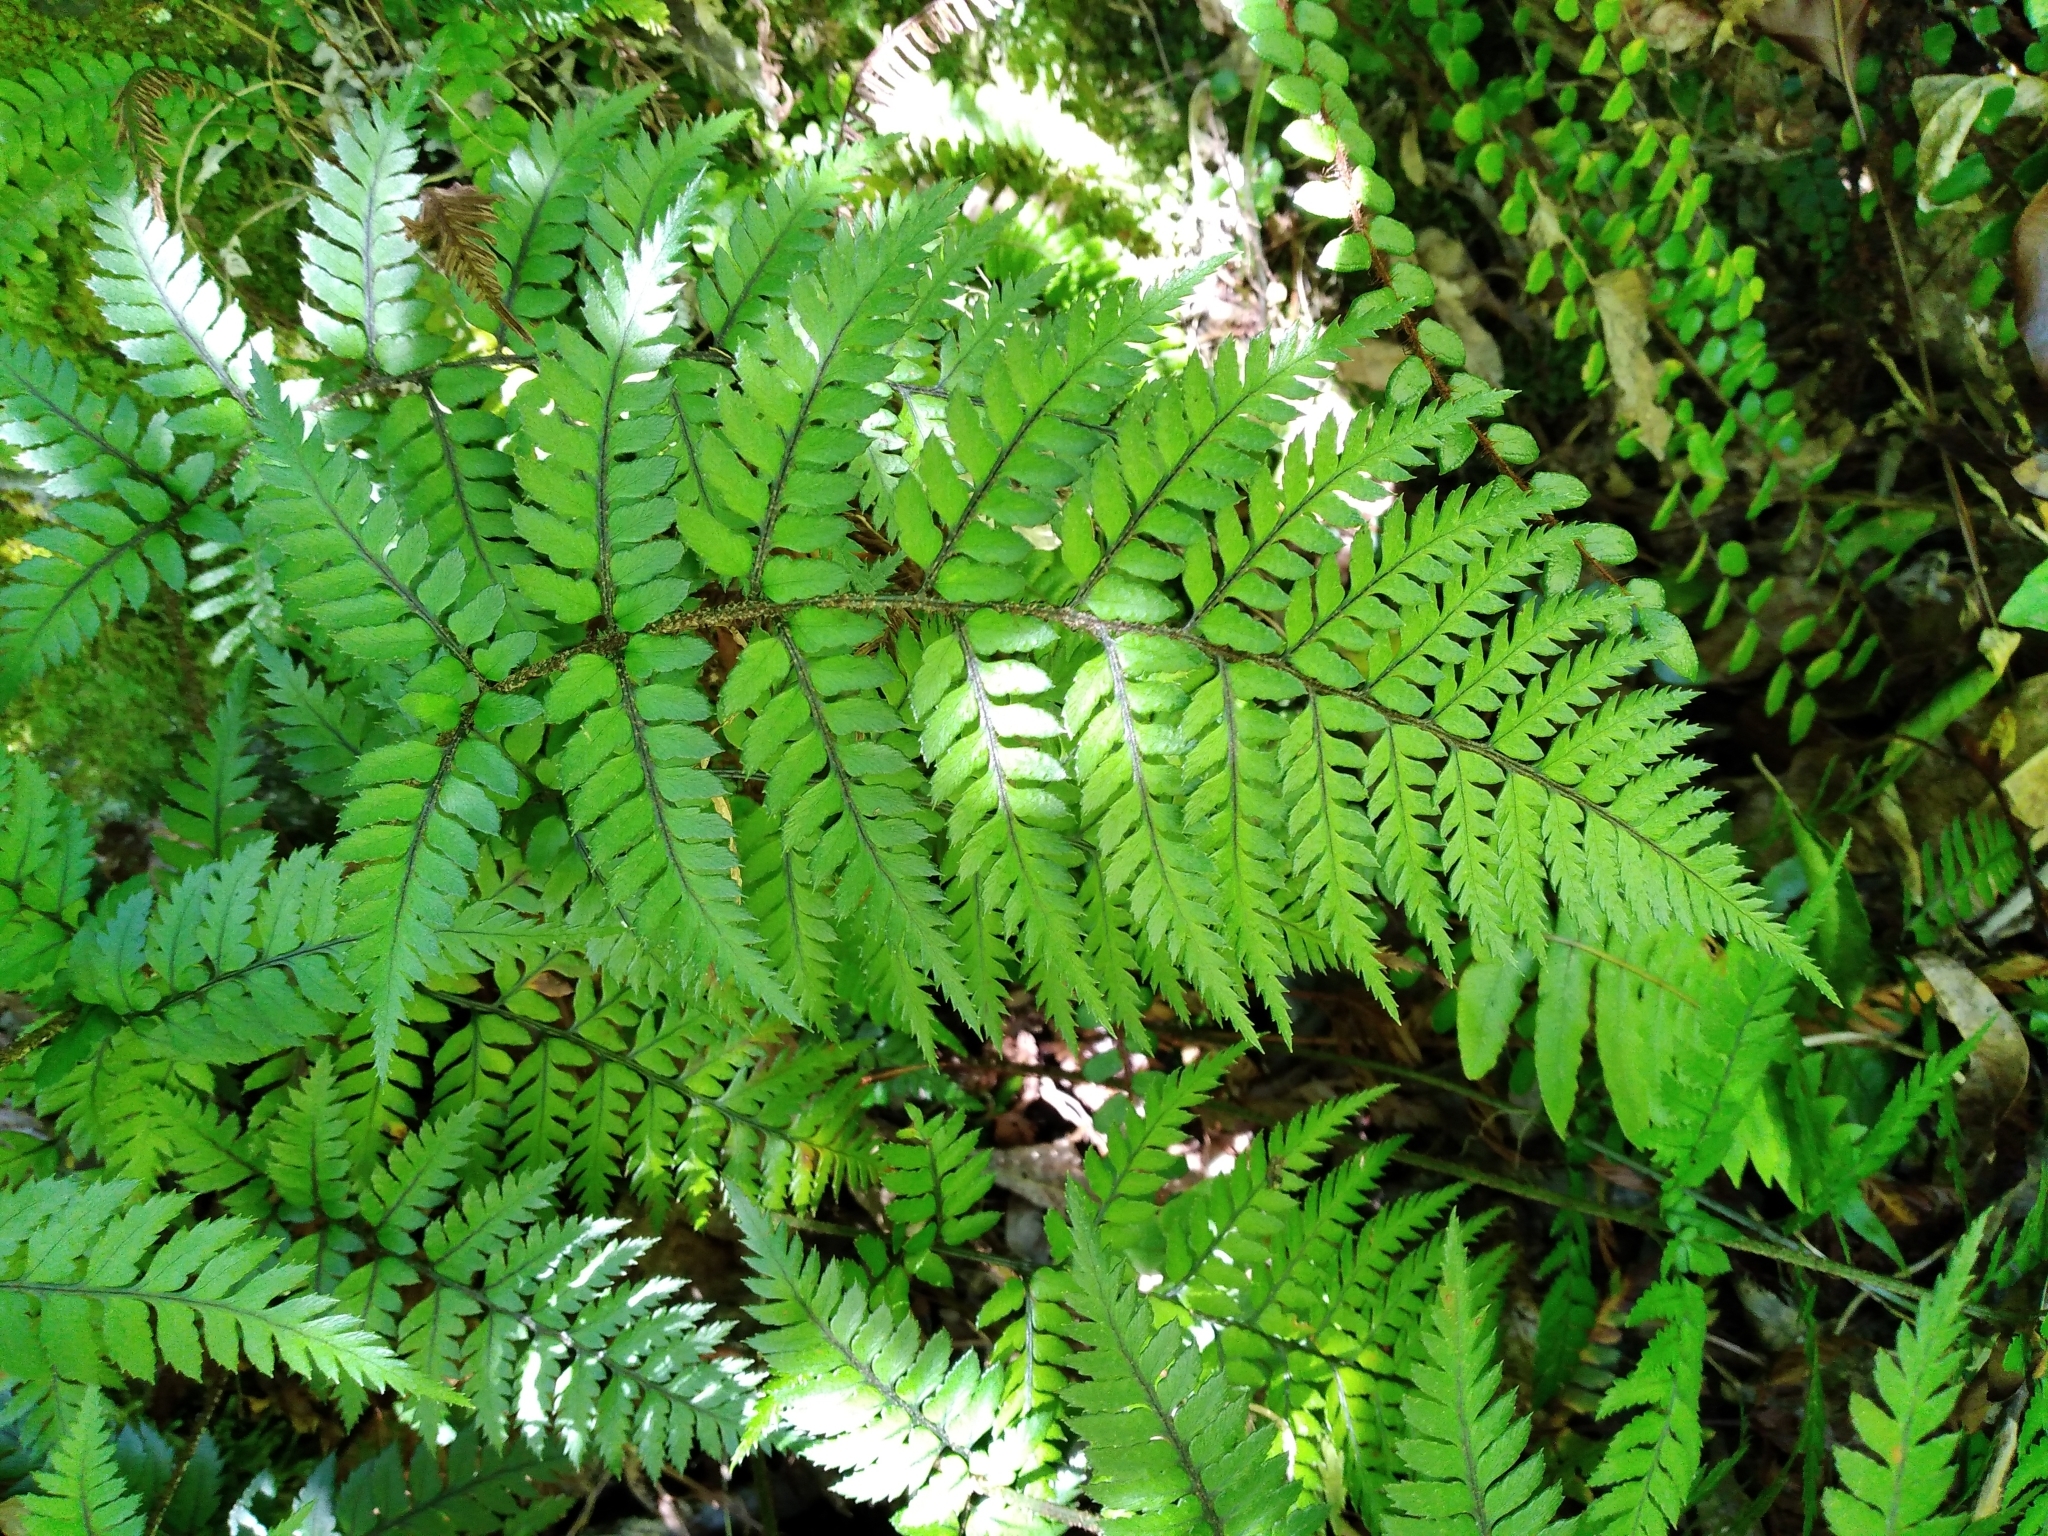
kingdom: Plantae
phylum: Tracheophyta
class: Polypodiopsida
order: Polypodiales
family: Dryopteridaceae
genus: Polystichum
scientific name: Polystichum neozelandicum
